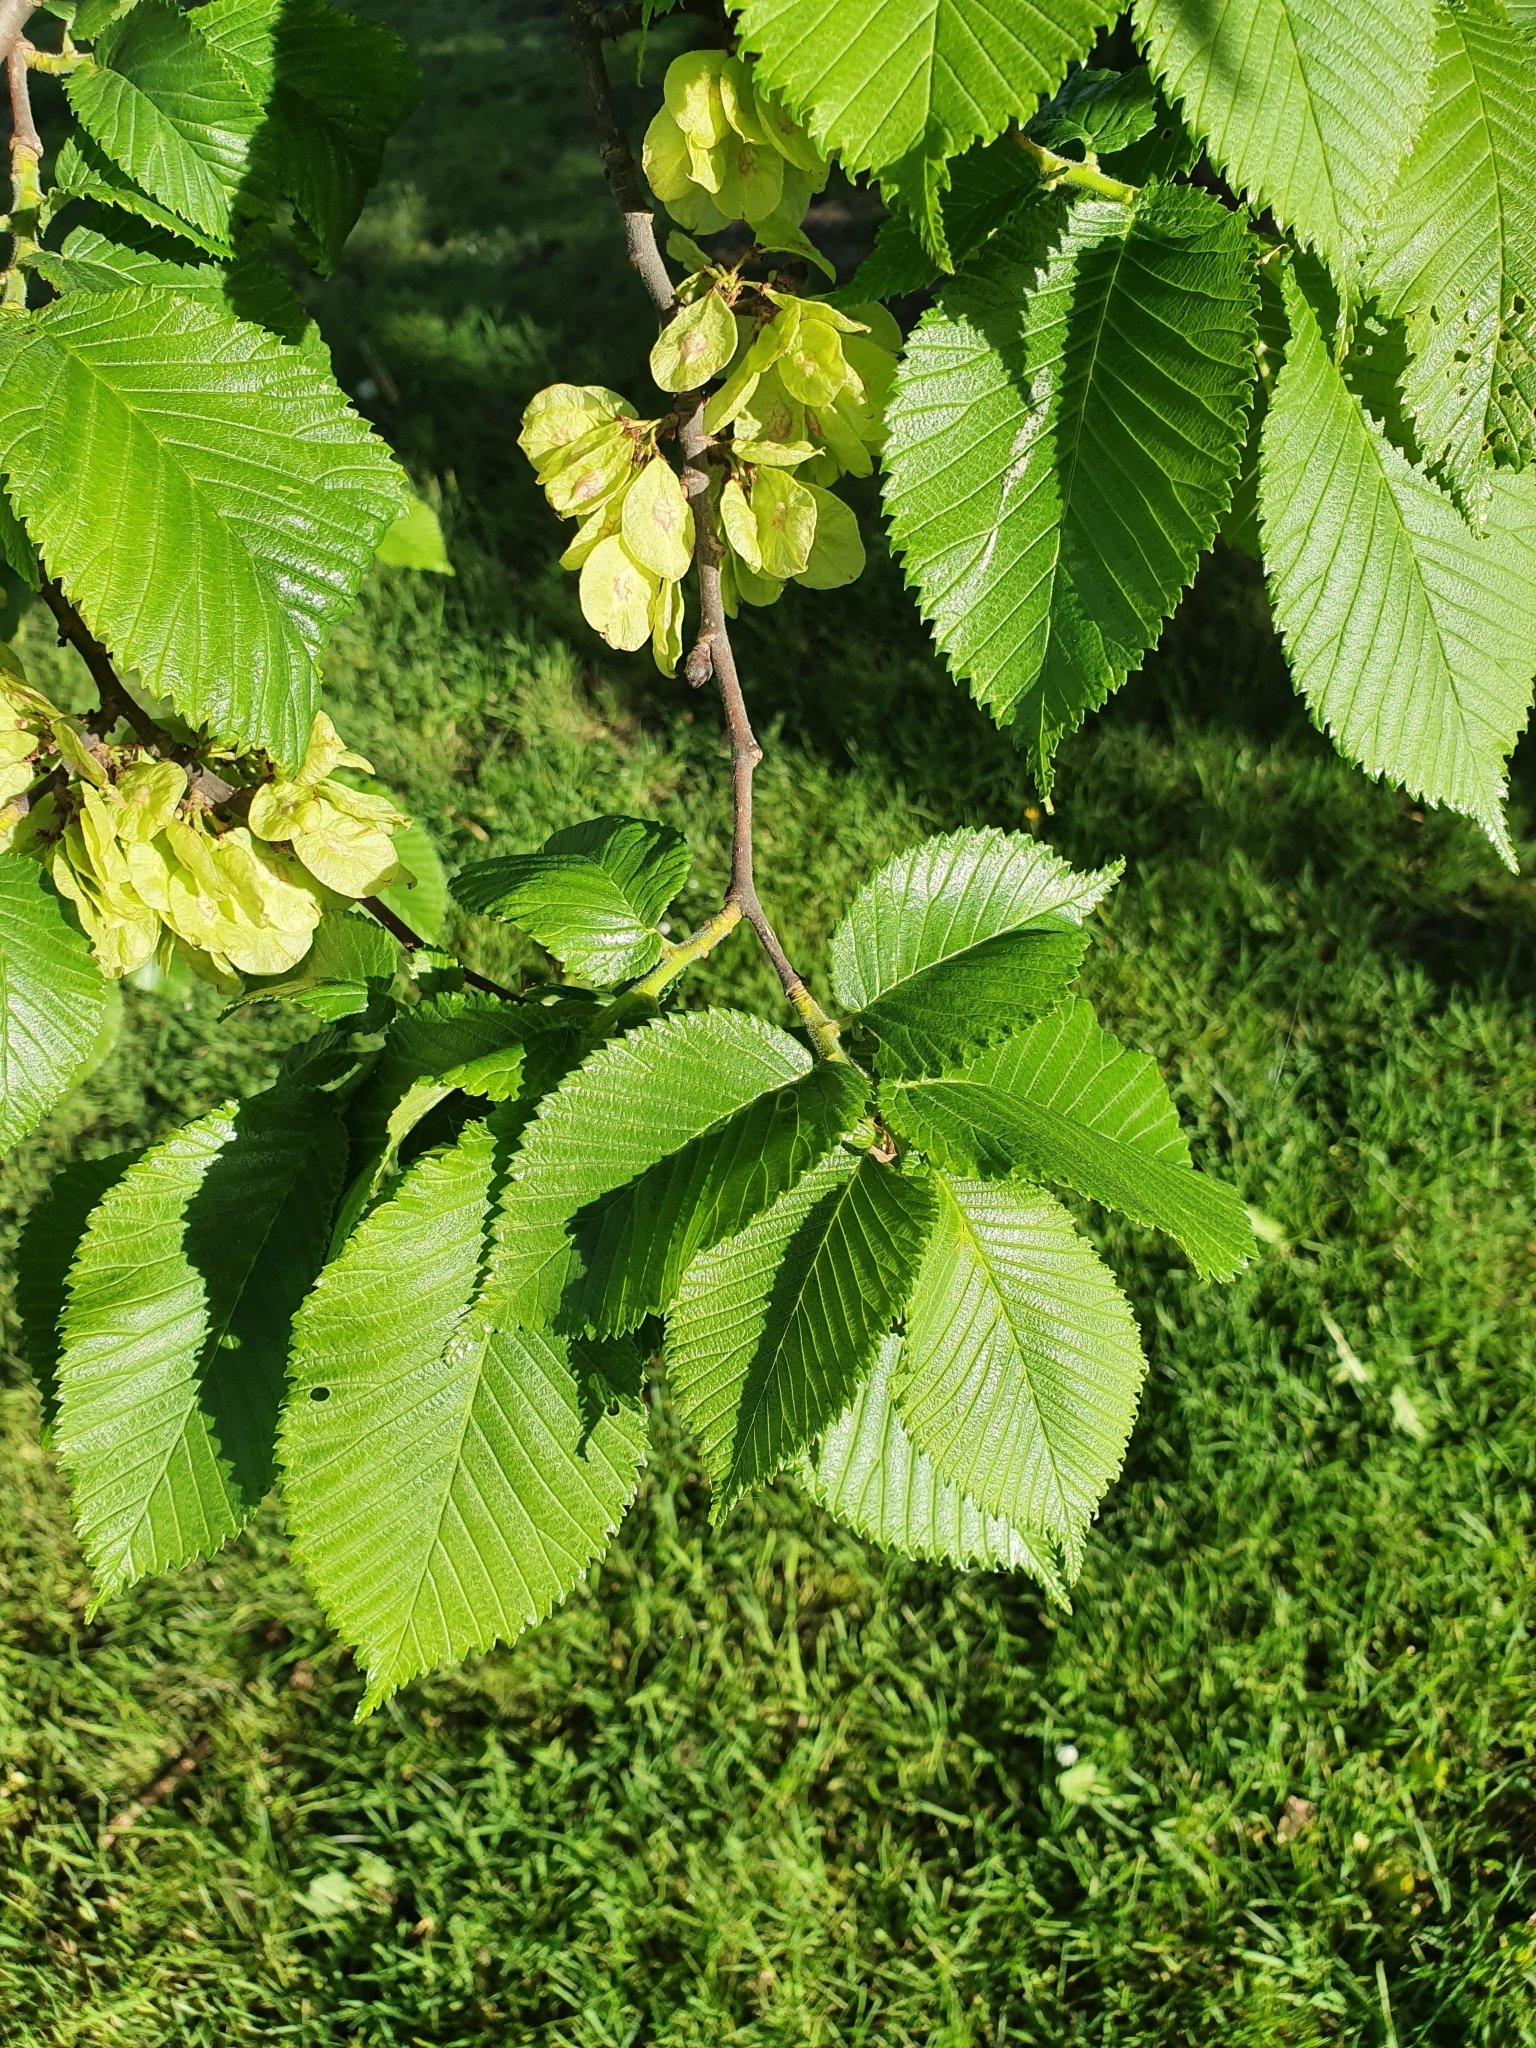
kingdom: Plantae
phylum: Tracheophyta
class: Magnoliopsida
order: Rosales
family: Ulmaceae
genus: Ulmus
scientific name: Ulmus glabra
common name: Wych elm
